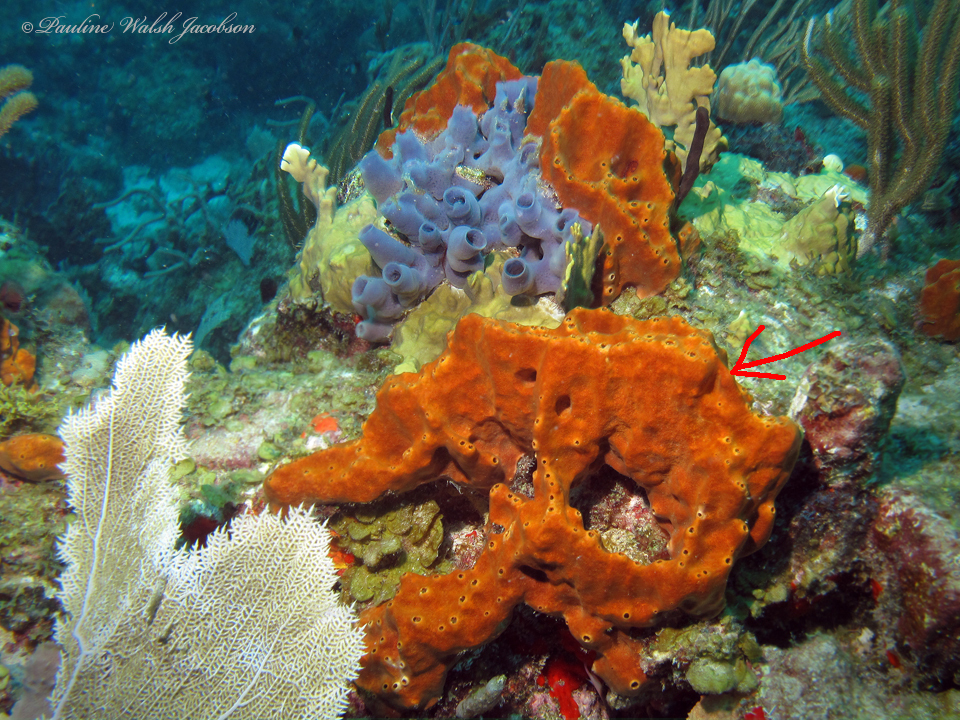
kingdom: Animalia
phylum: Porifera
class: Demospongiae
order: Axinellida
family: Raspailiidae
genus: Ectyoplasia
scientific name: Ectyoplasia ferox
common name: Brown encrusting octopus sponge
